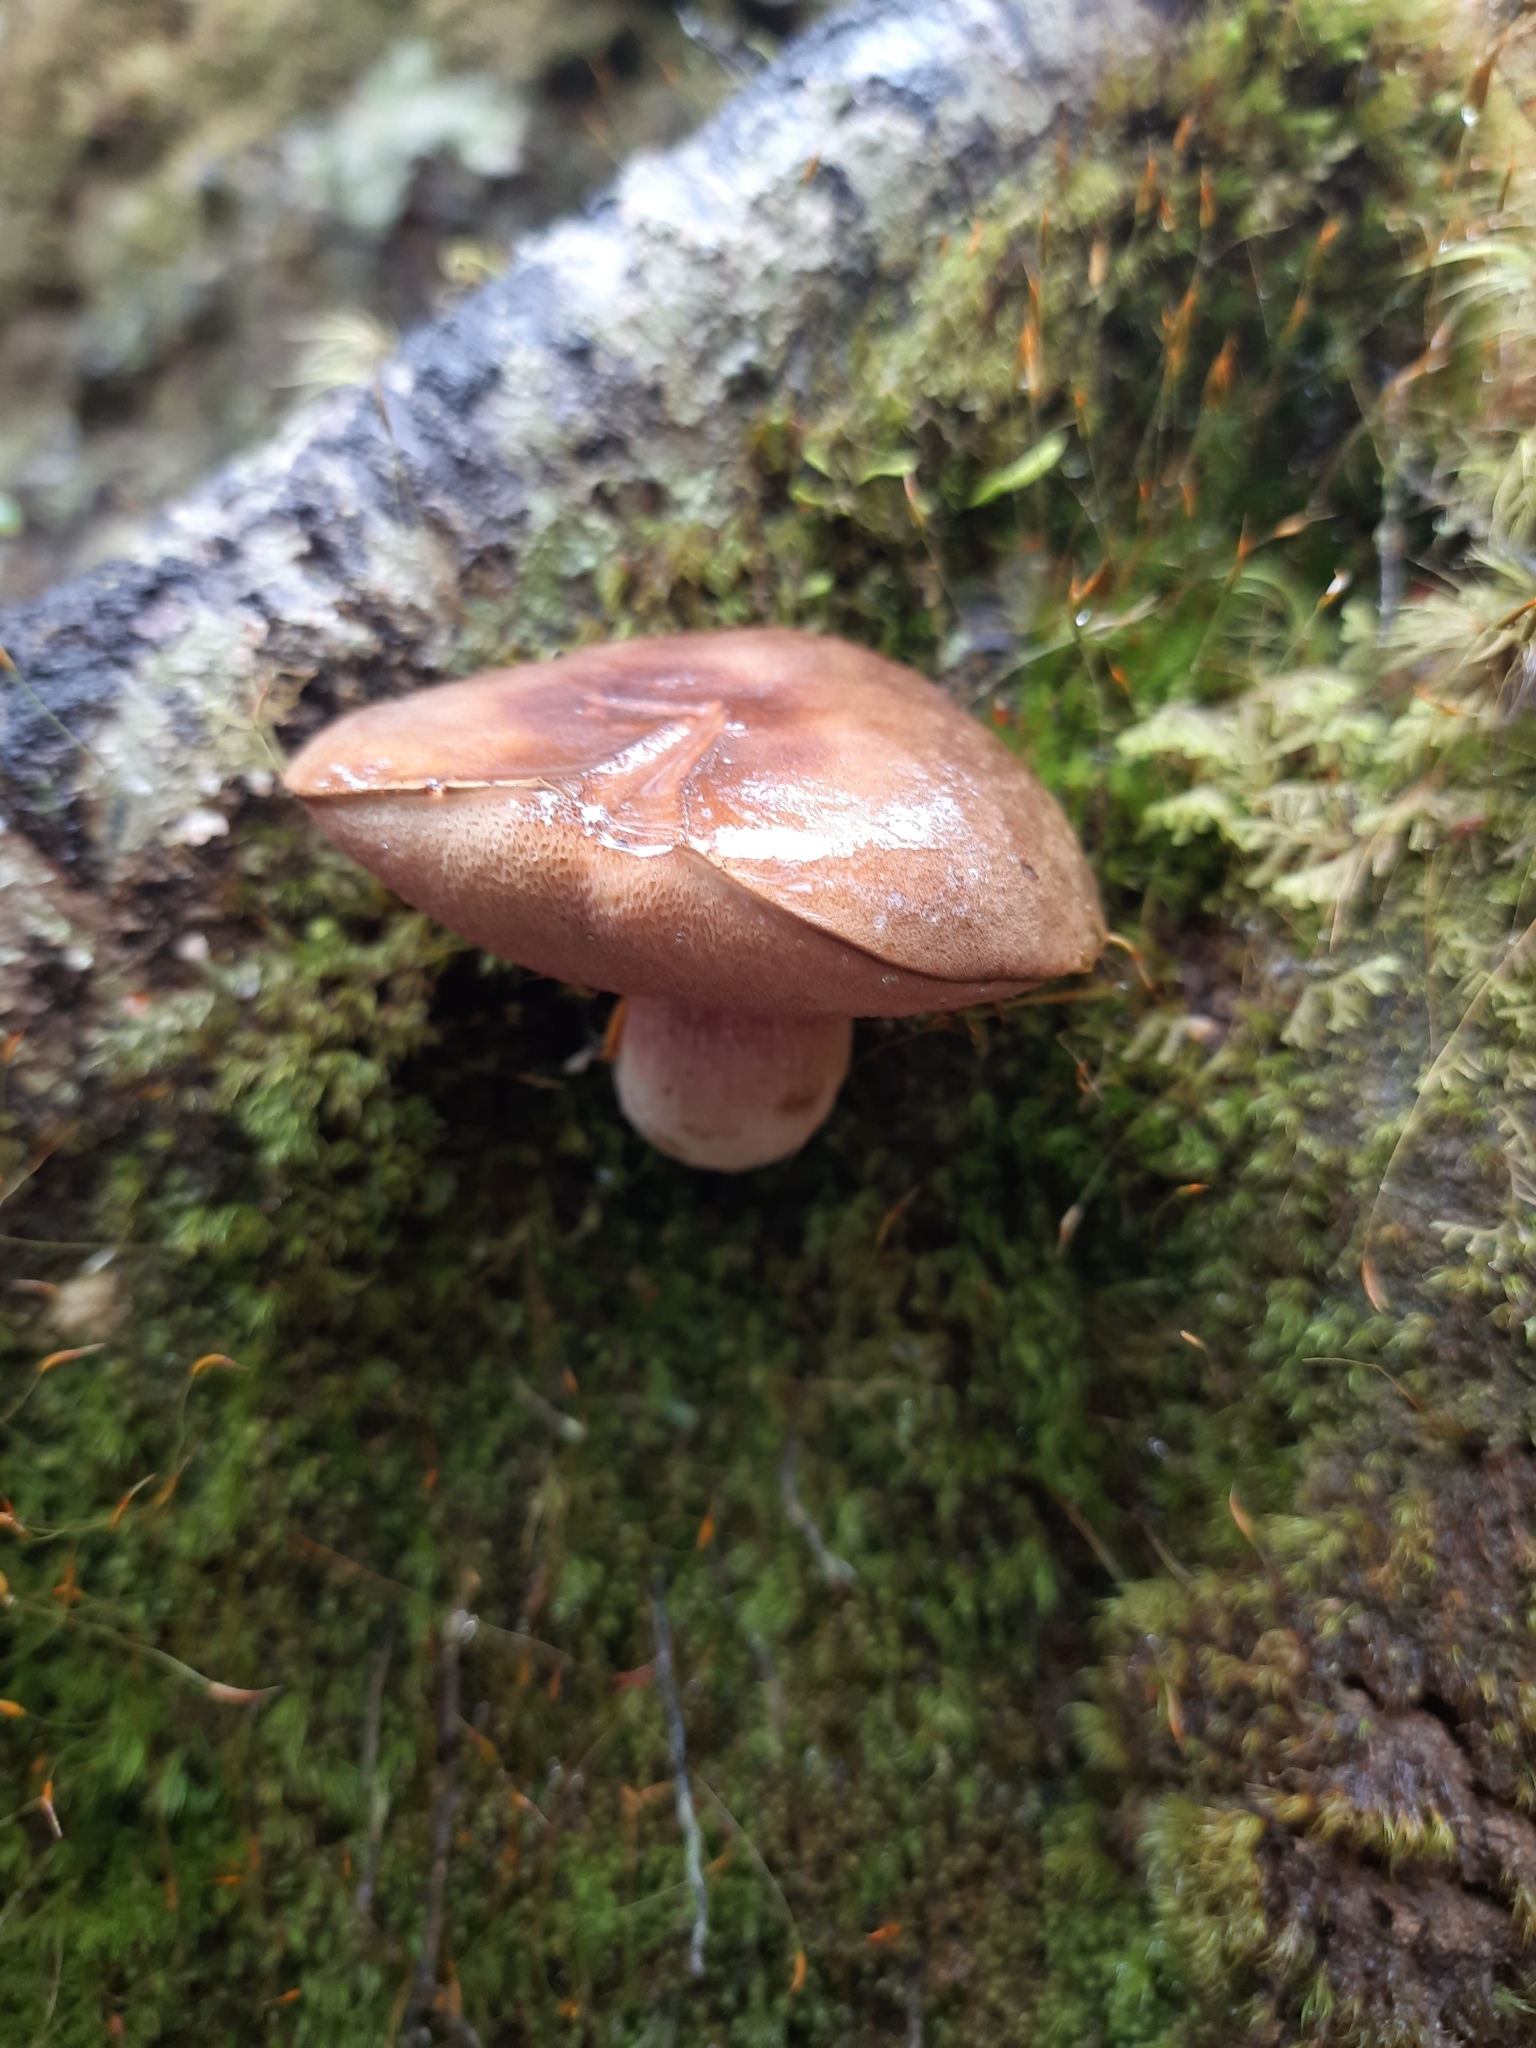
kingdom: Fungi
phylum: Basidiomycota
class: Agaricomycetes
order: Boletales
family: Boletaceae
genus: Xerocomus
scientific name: Xerocomus nothofagi
